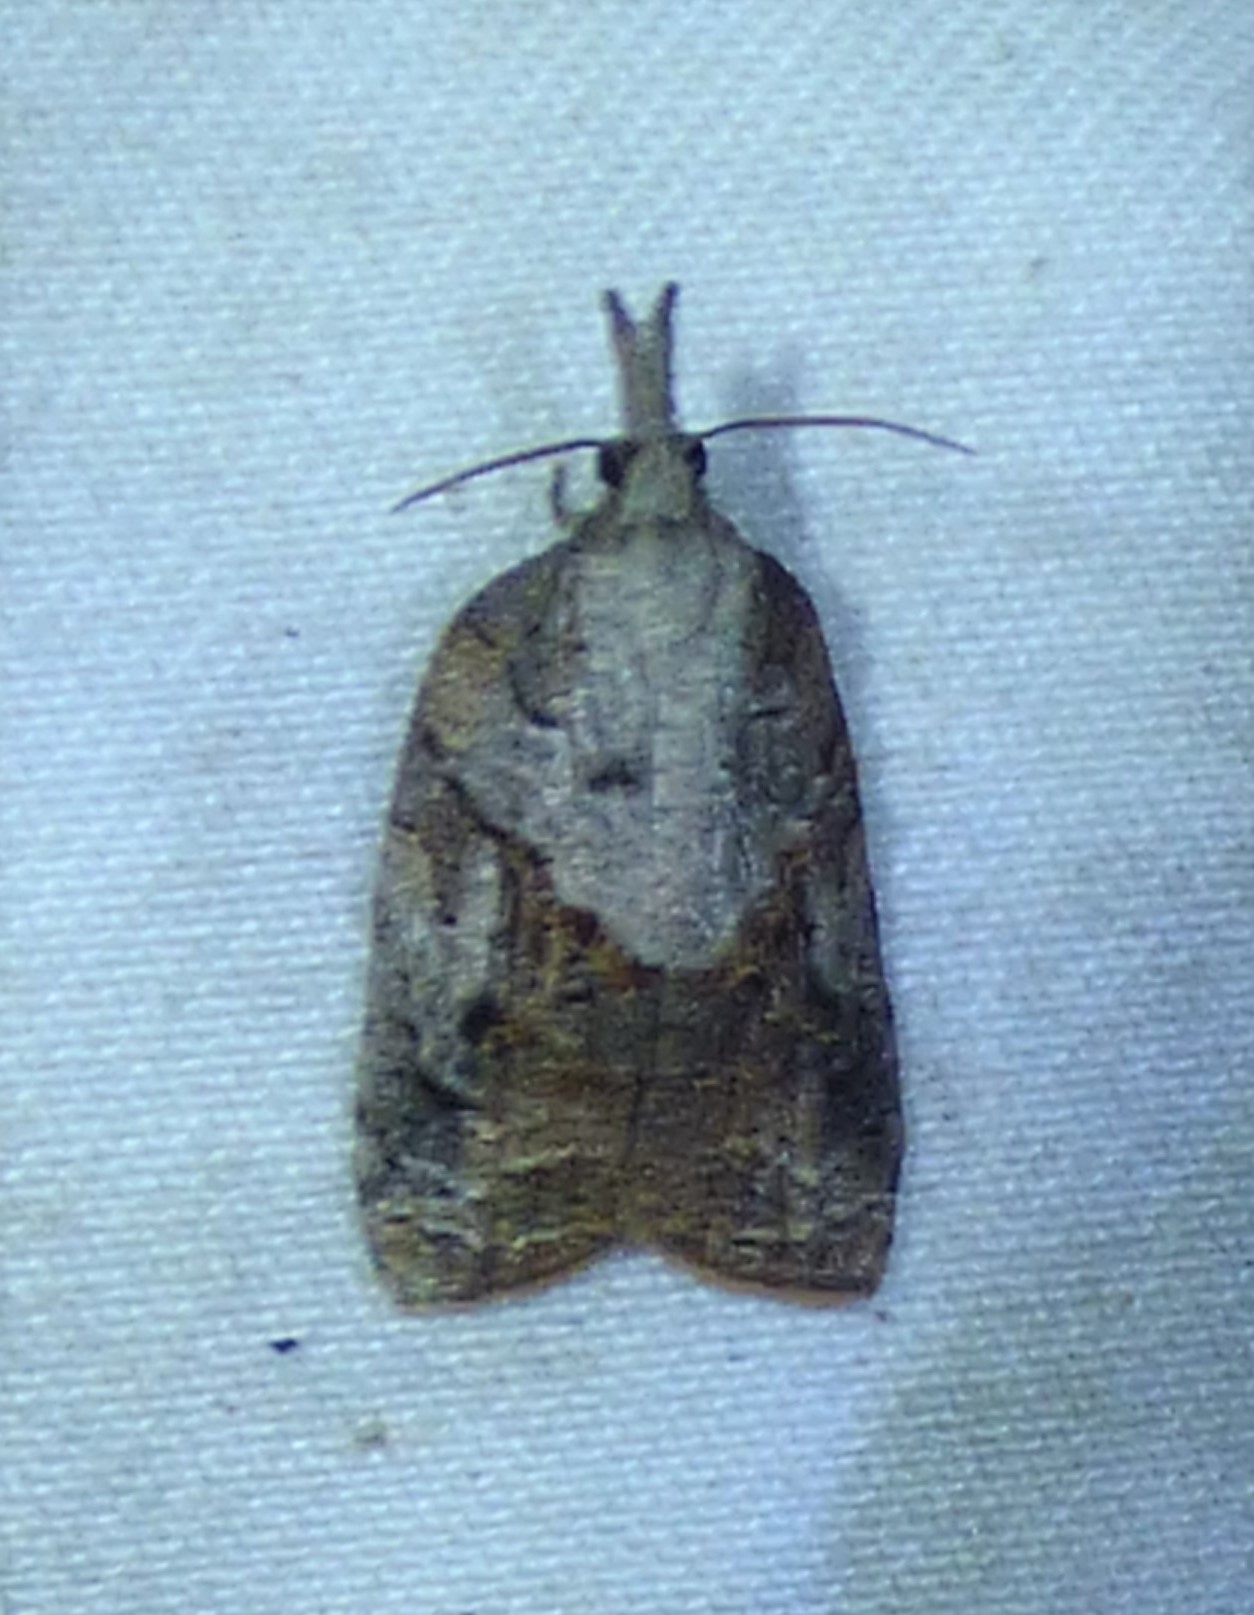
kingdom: Animalia
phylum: Arthropoda
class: Insecta
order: Lepidoptera
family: Tortricidae
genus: Platynota
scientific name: Platynota idaeusalis
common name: Tufted apple bud moth
